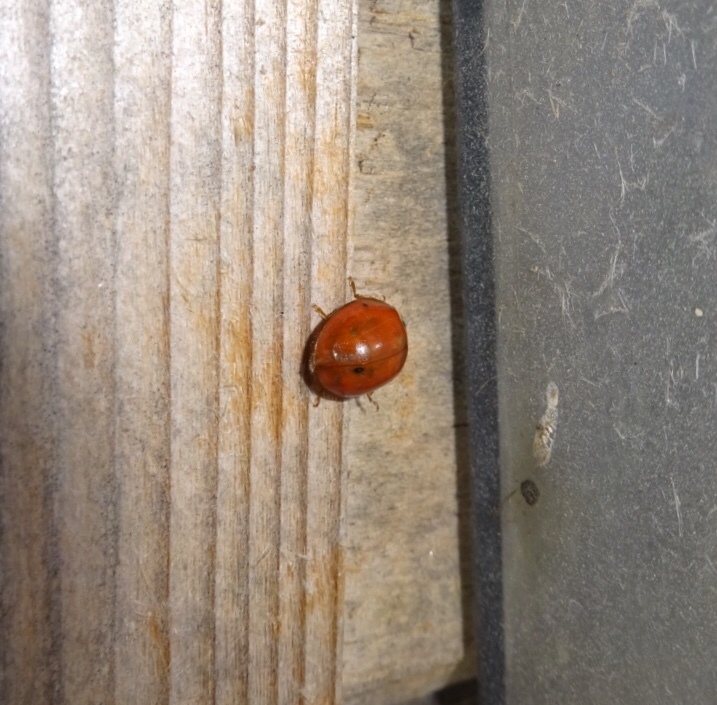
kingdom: Animalia
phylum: Arthropoda
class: Insecta
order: Coleoptera
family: Coccinellidae
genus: Harmonia
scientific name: Harmonia axyridis
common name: Harlequin ladybird
